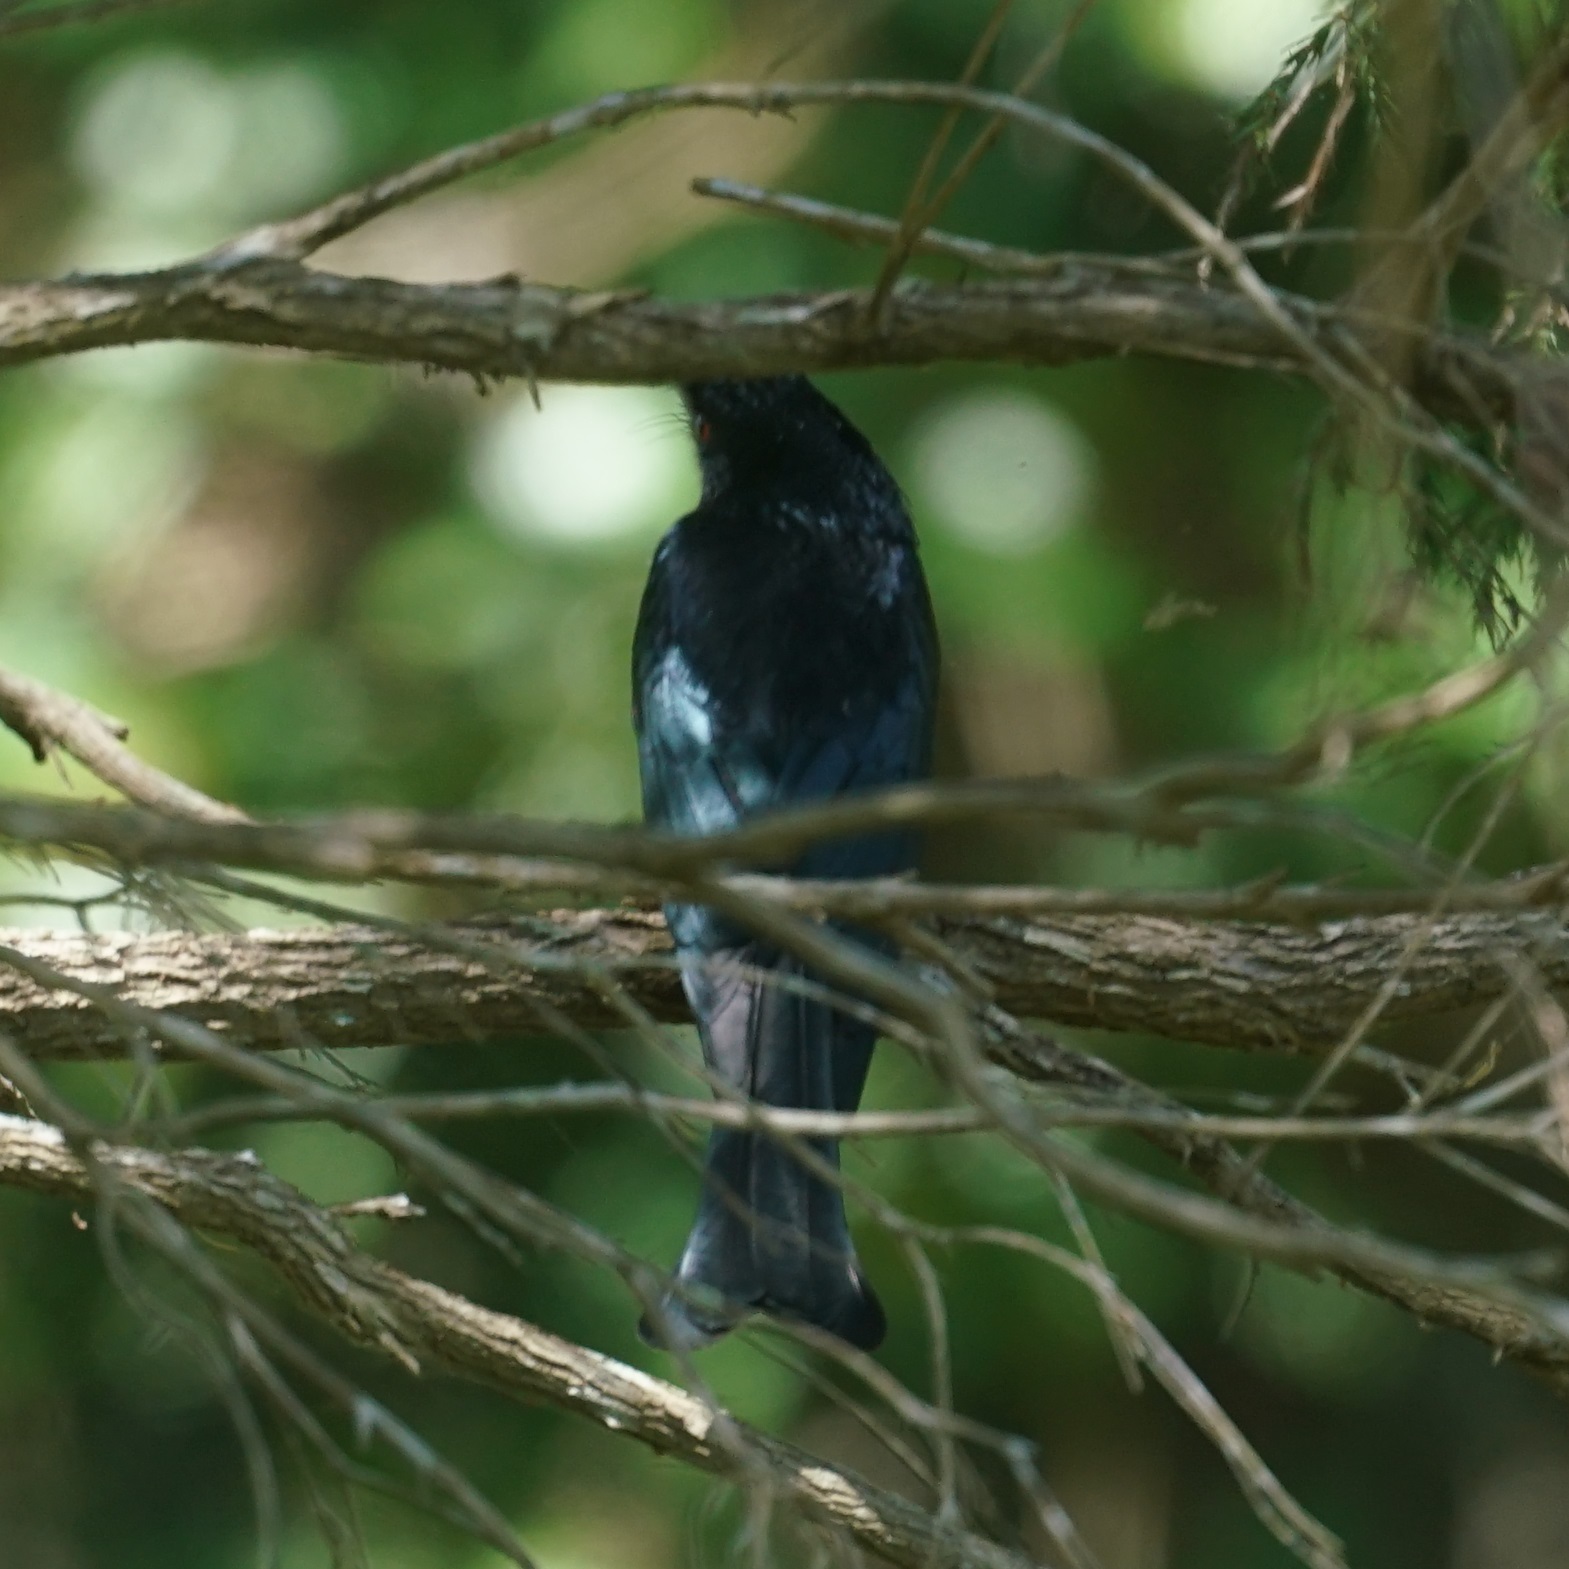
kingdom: Animalia
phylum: Chordata
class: Aves
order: Passeriformes
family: Dicruridae
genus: Dicrurus
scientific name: Dicrurus bracteatus
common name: Spangled drongo
